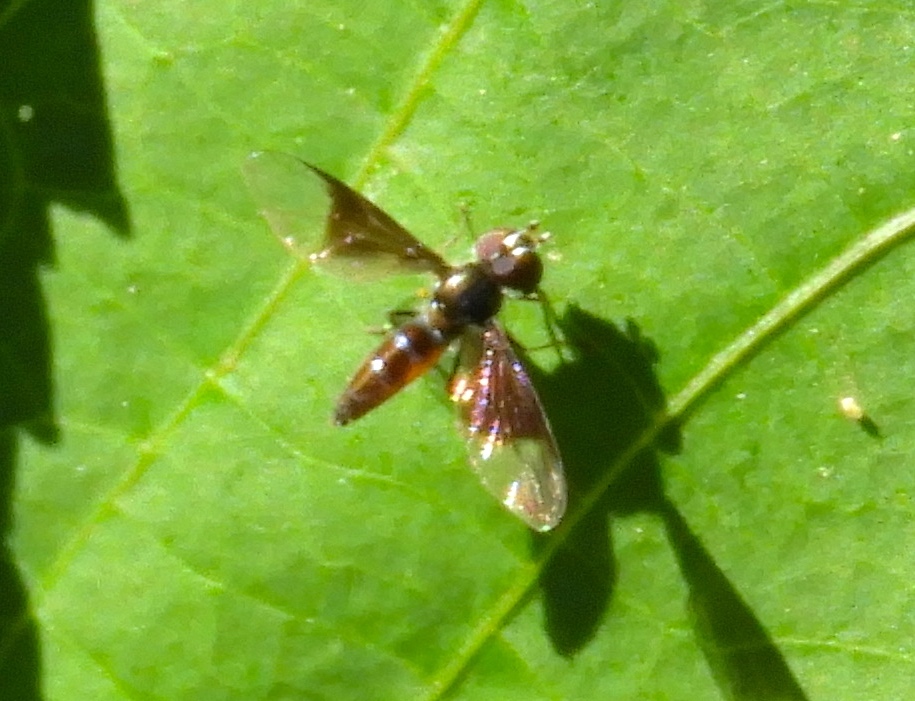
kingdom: Animalia
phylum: Arthropoda
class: Insecta
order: Diptera
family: Syrphidae
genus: Ocyptamus
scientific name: Ocyptamus
